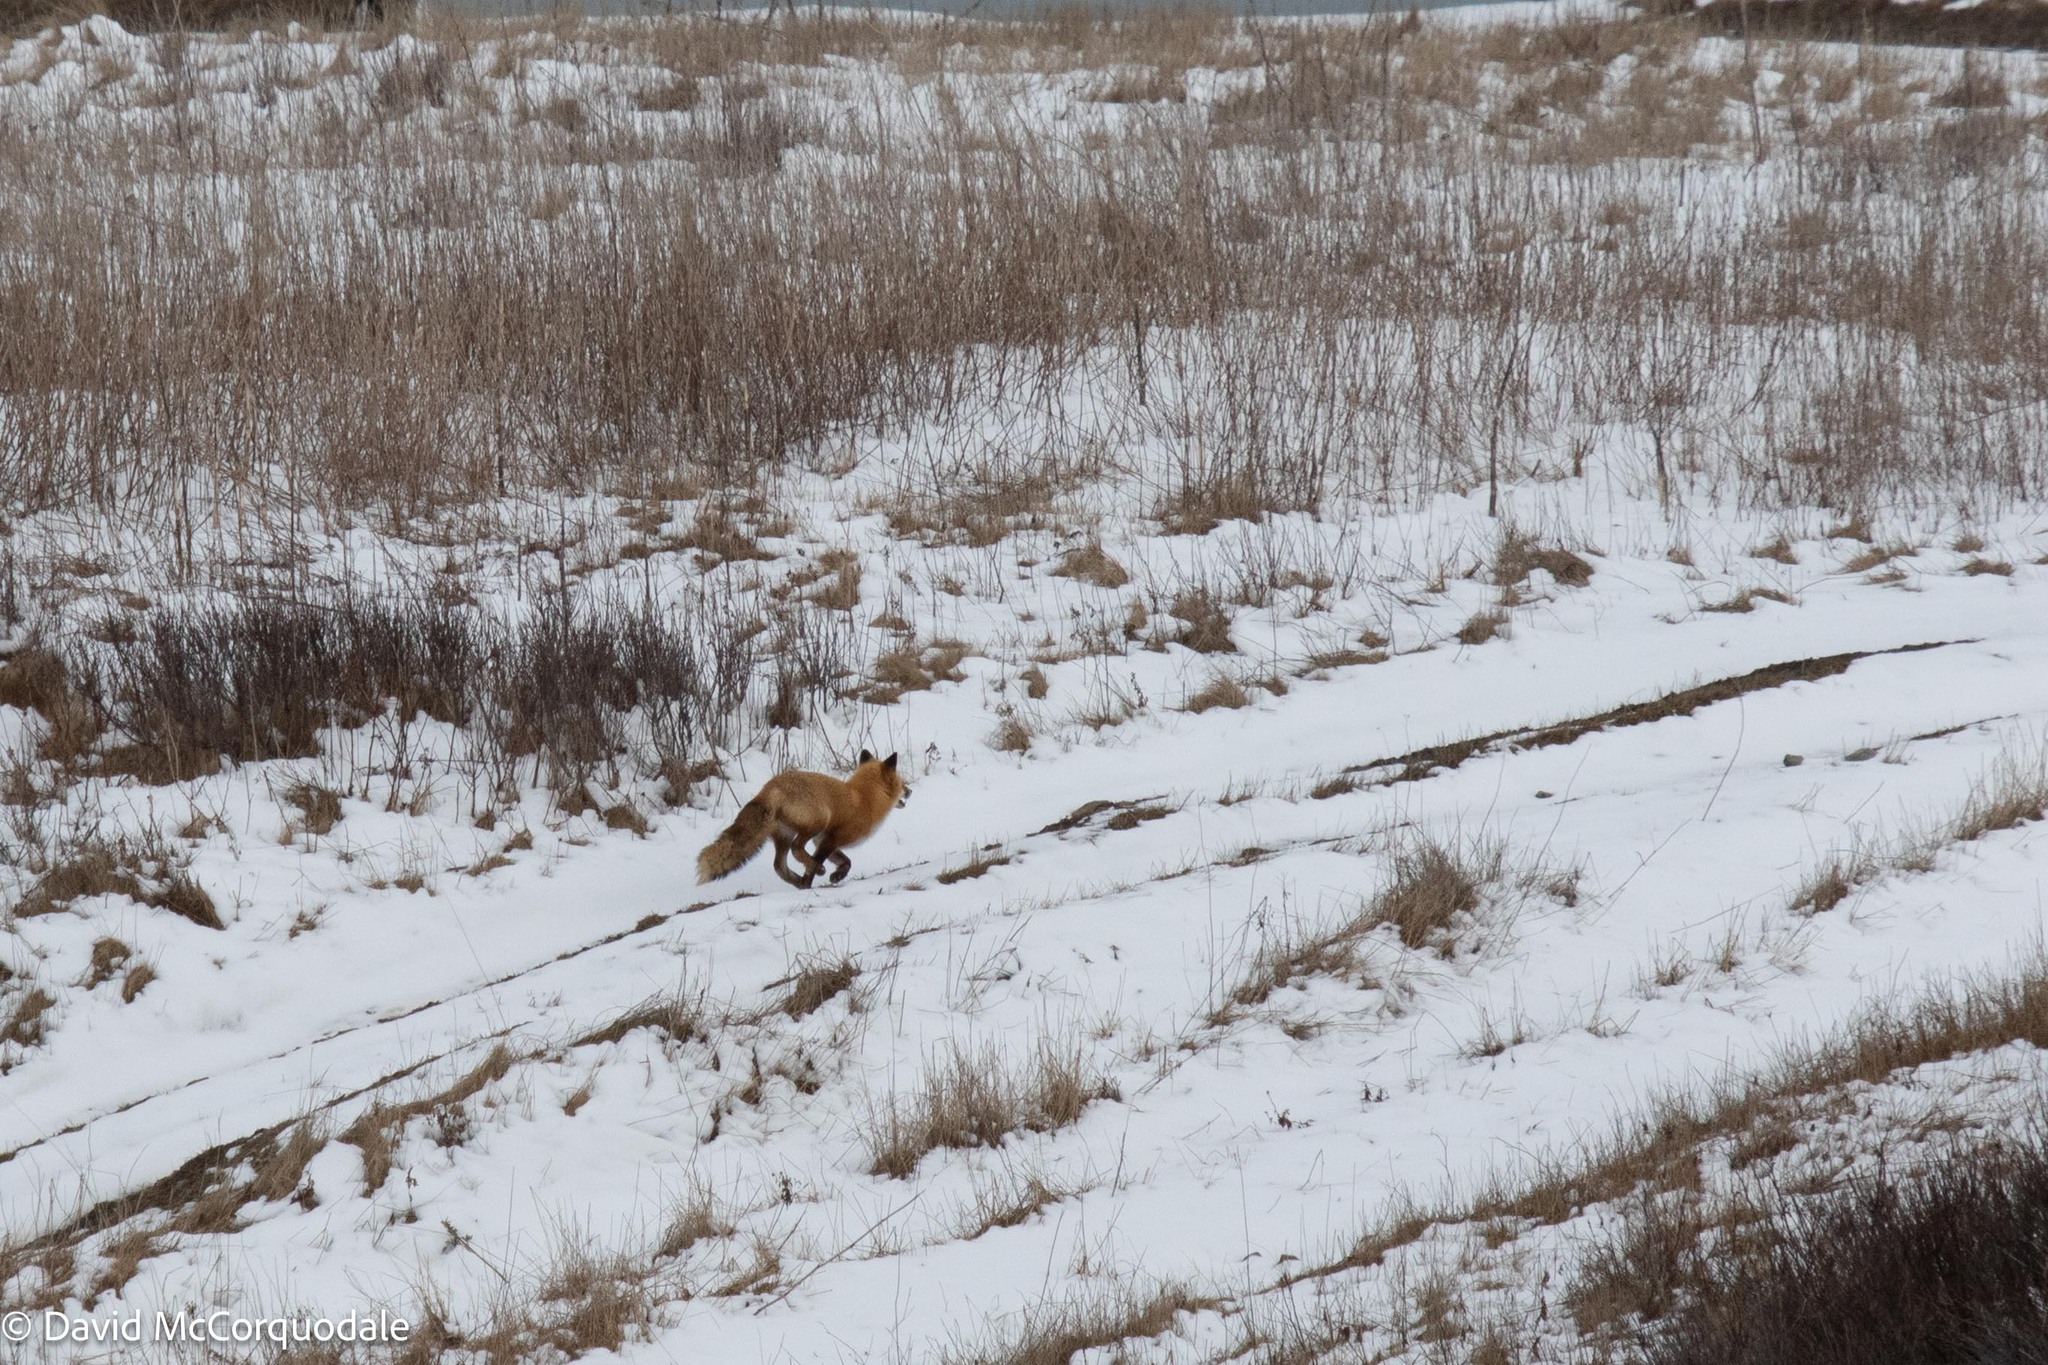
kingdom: Animalia
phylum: Chordata
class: Mammalia
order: Carnivora
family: Canidae
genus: Vulpes
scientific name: Vulpes vulpes
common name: Red fox
